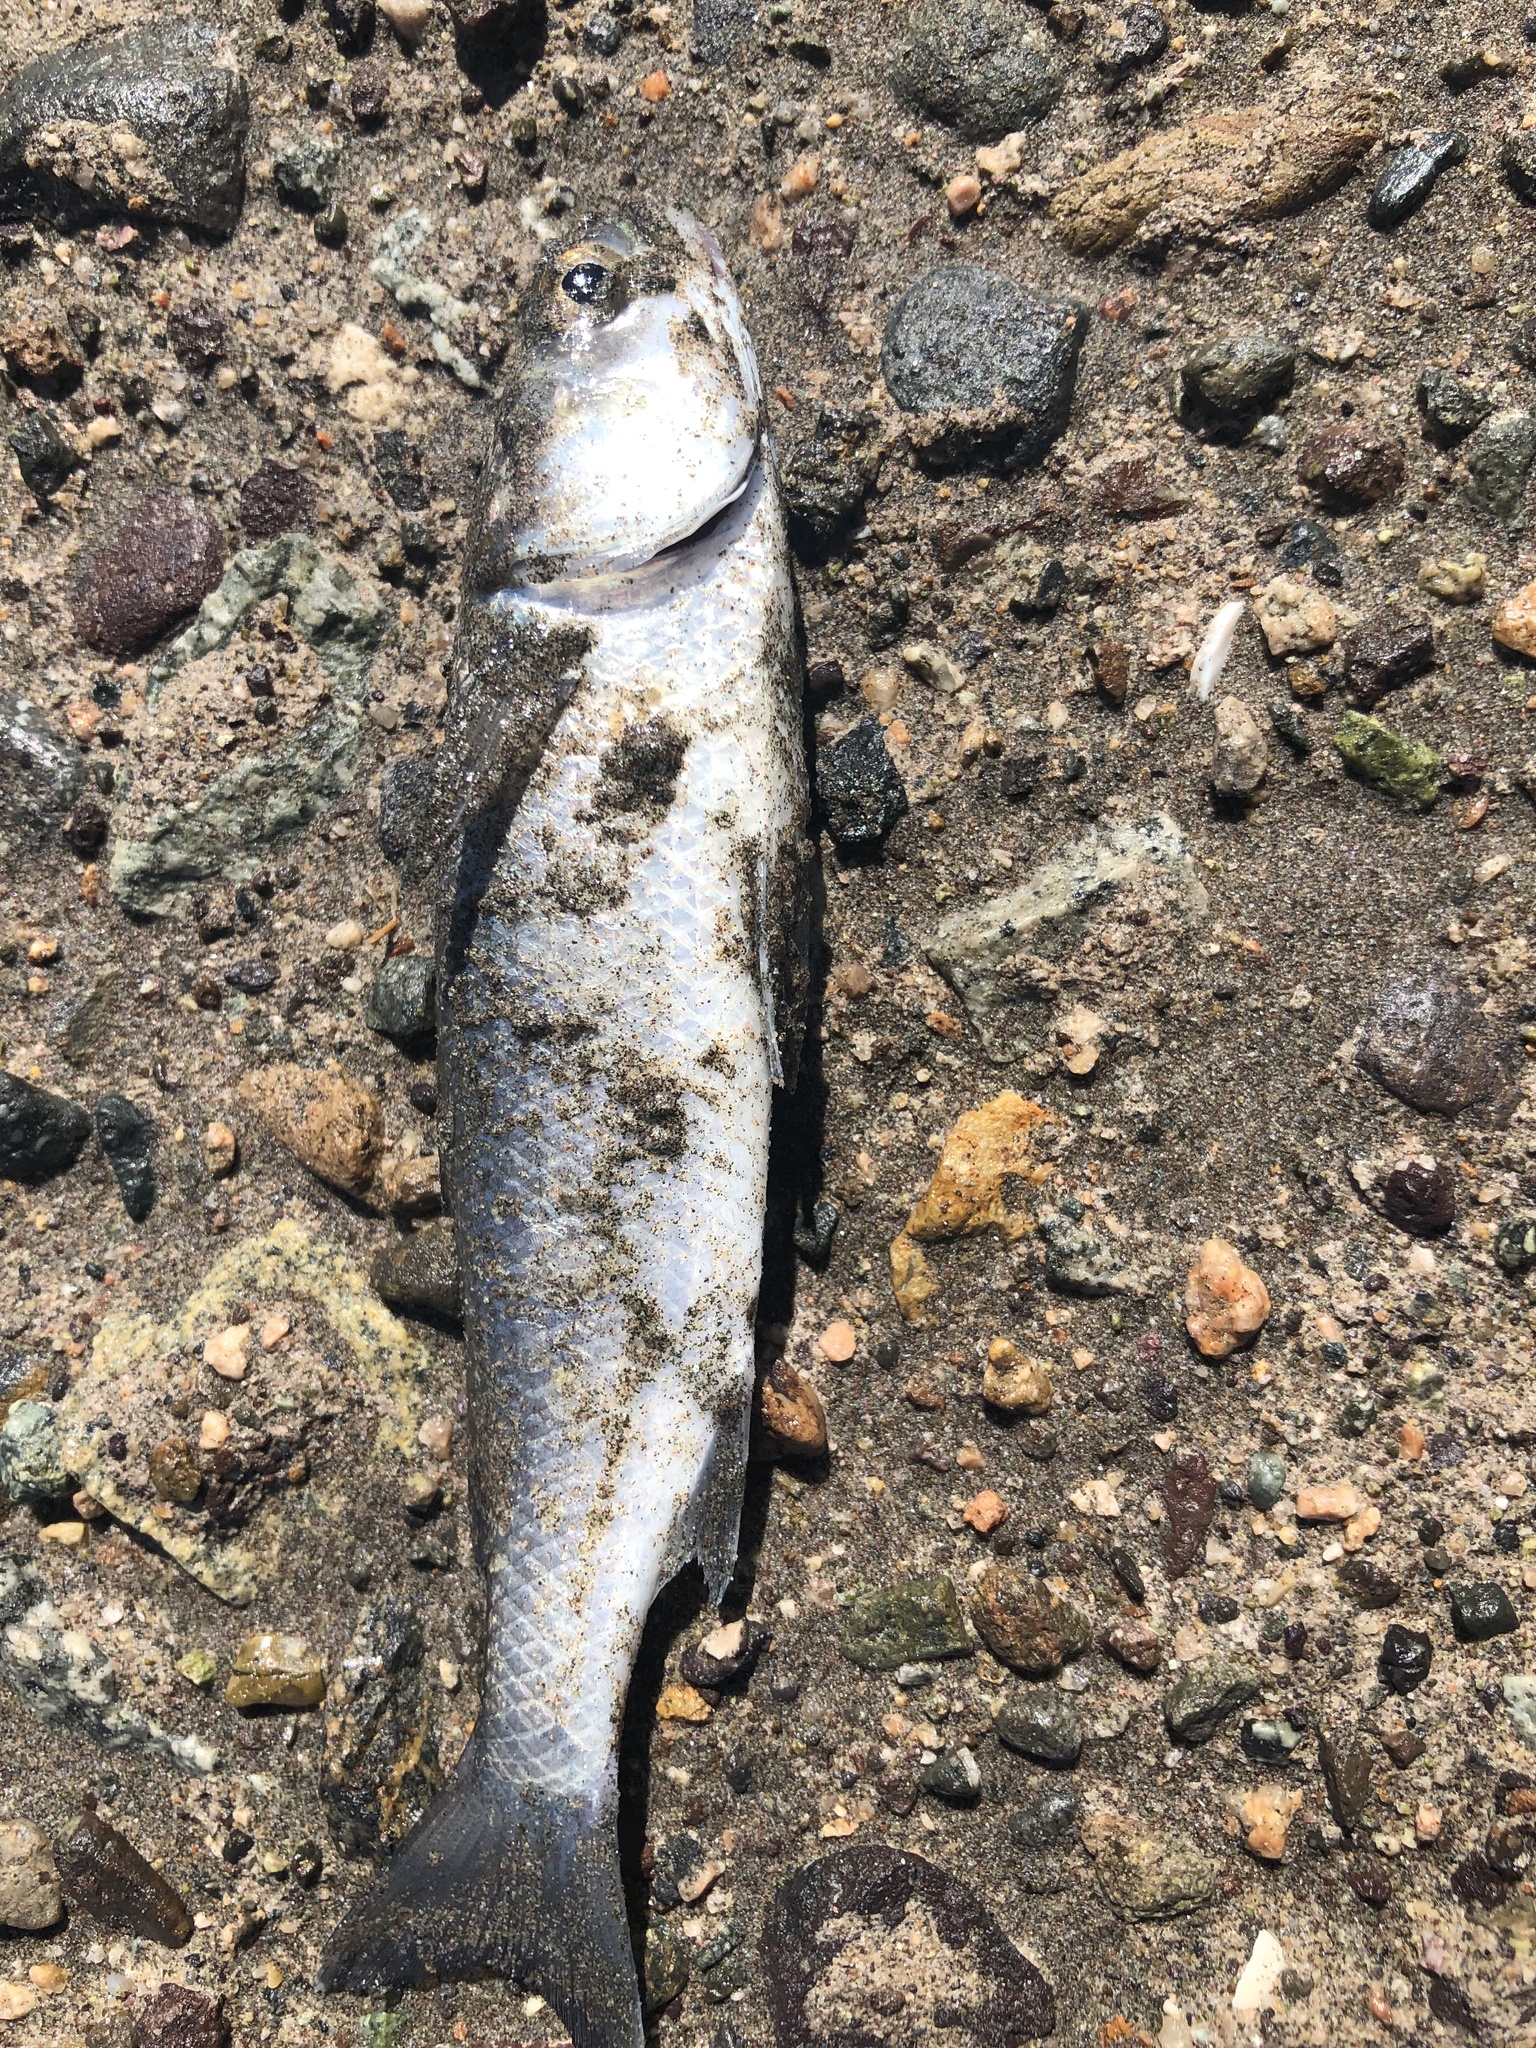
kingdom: Animalia
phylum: Chordata
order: Mugiliformes
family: Mugilidae
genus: Mugil
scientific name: Mugil cephalus
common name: Grey mullet
